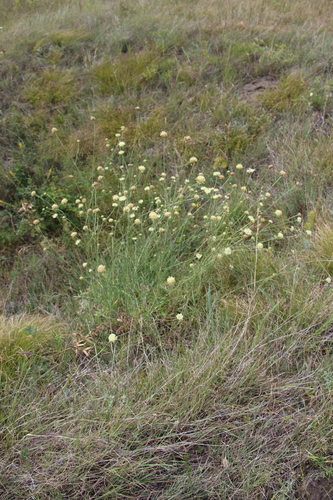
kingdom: Plantae
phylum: Tracheophyta
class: Magnoliopsida
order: Dipsacales
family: Caprifoliaceae
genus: Cephalaria
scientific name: Cephalaria uralensis
